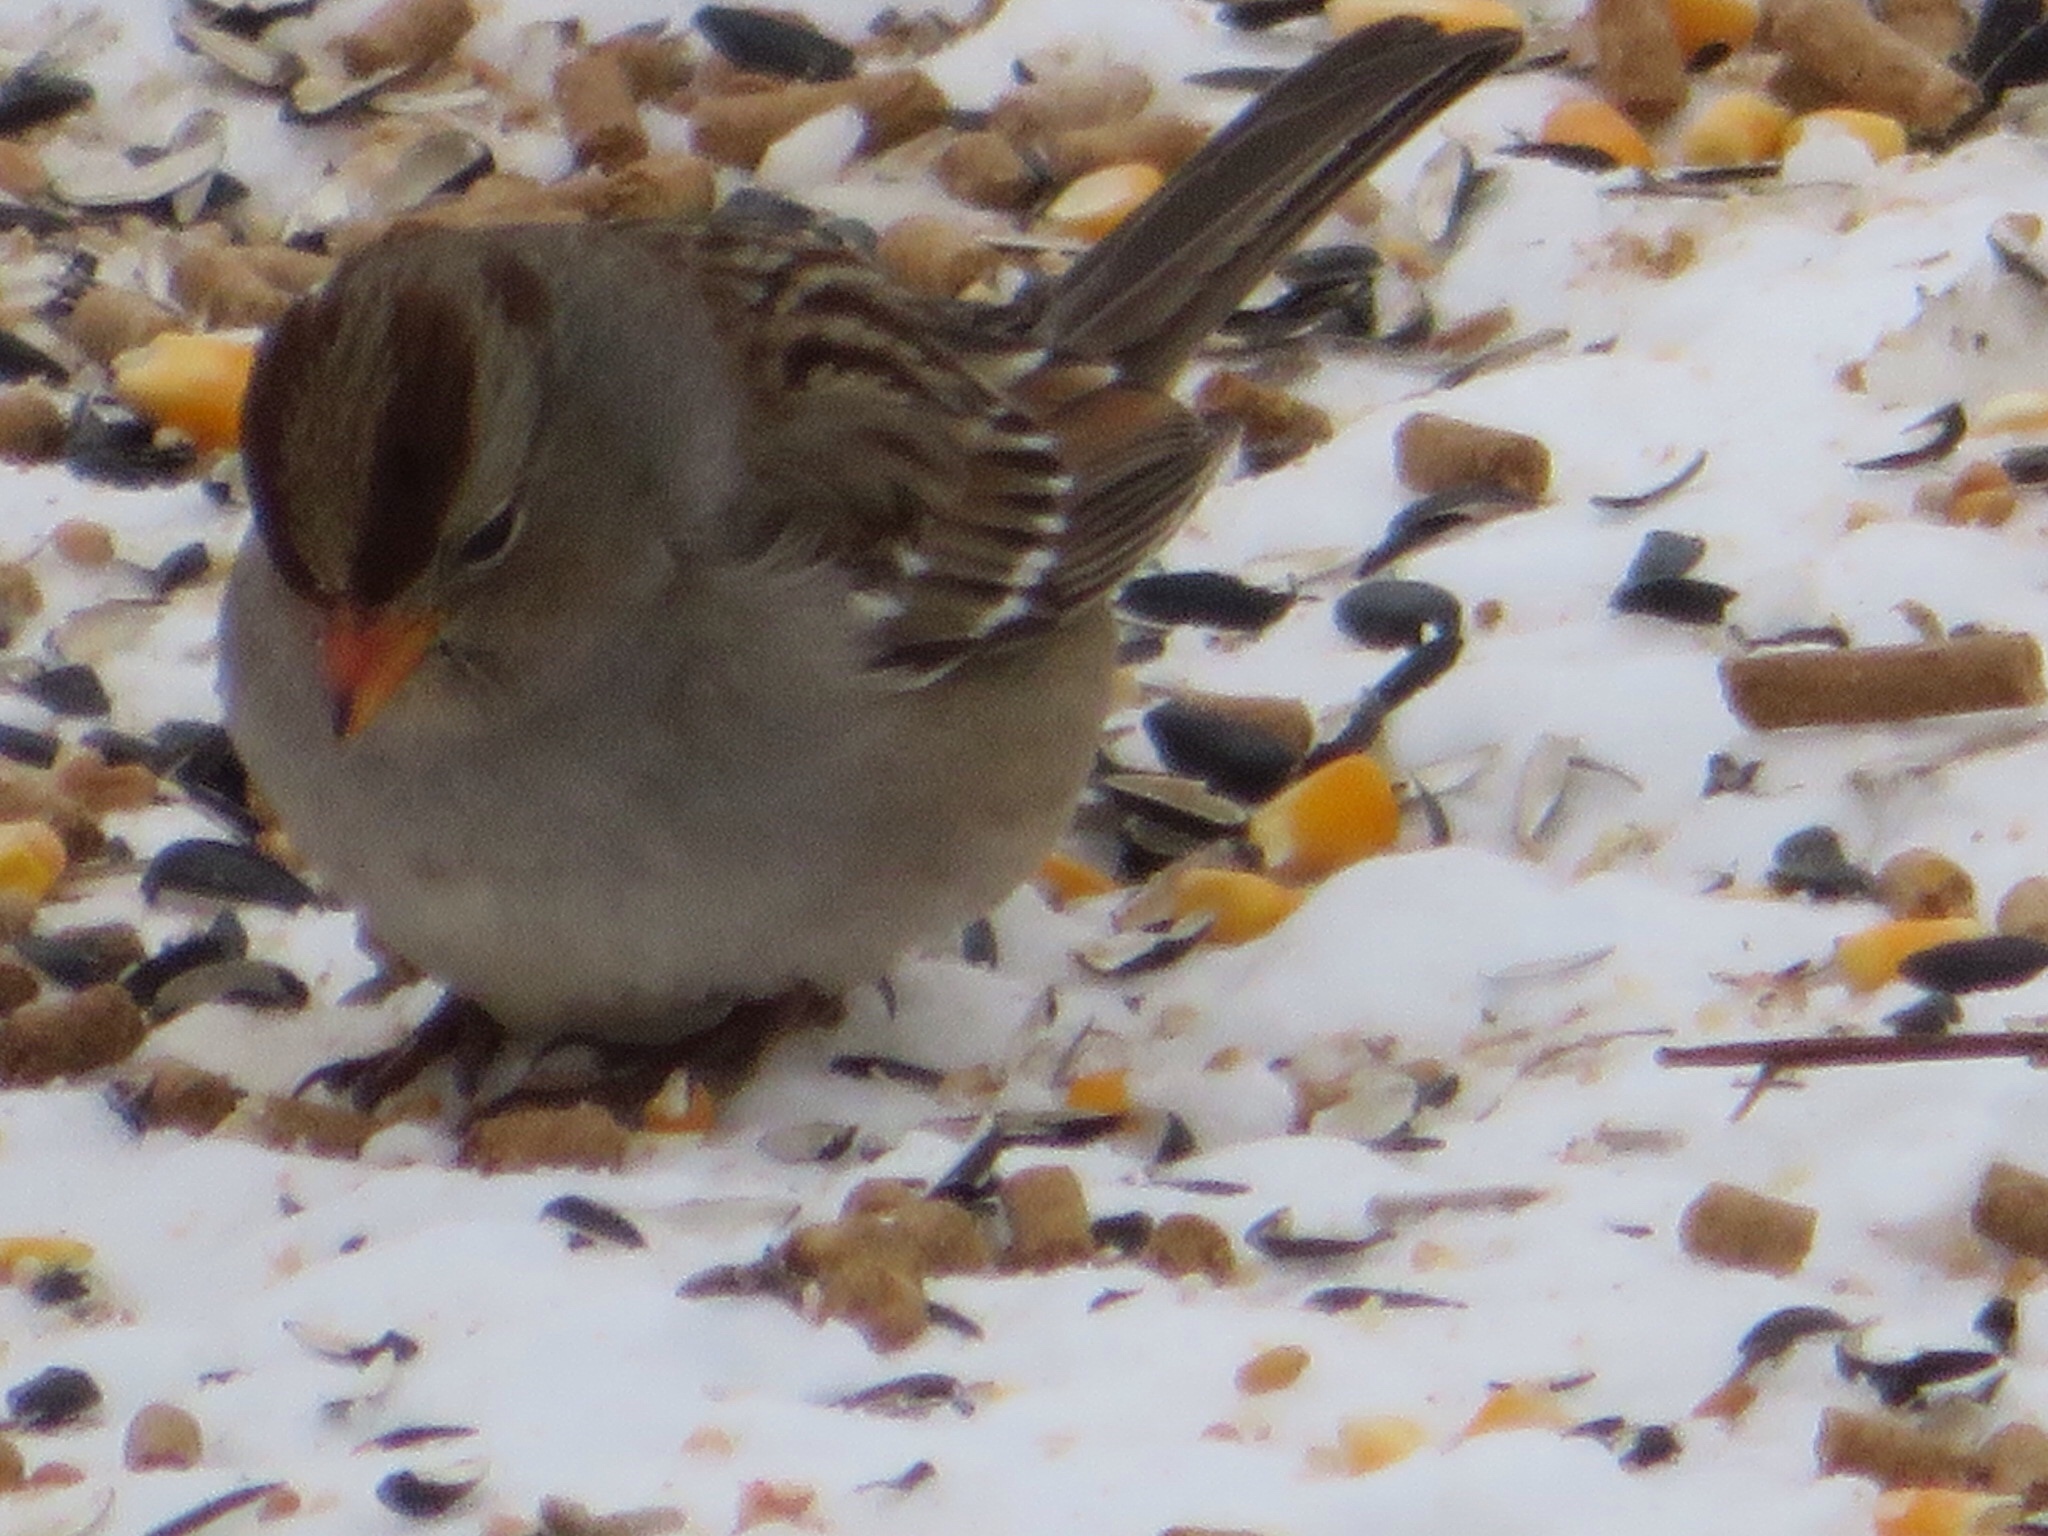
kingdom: Animalia
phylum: Chordata
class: Aves
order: Passeriformes
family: Passerellidae
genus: Zonotrichia
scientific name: Zonotrichia leucophrys
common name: White-crowned sparrow
